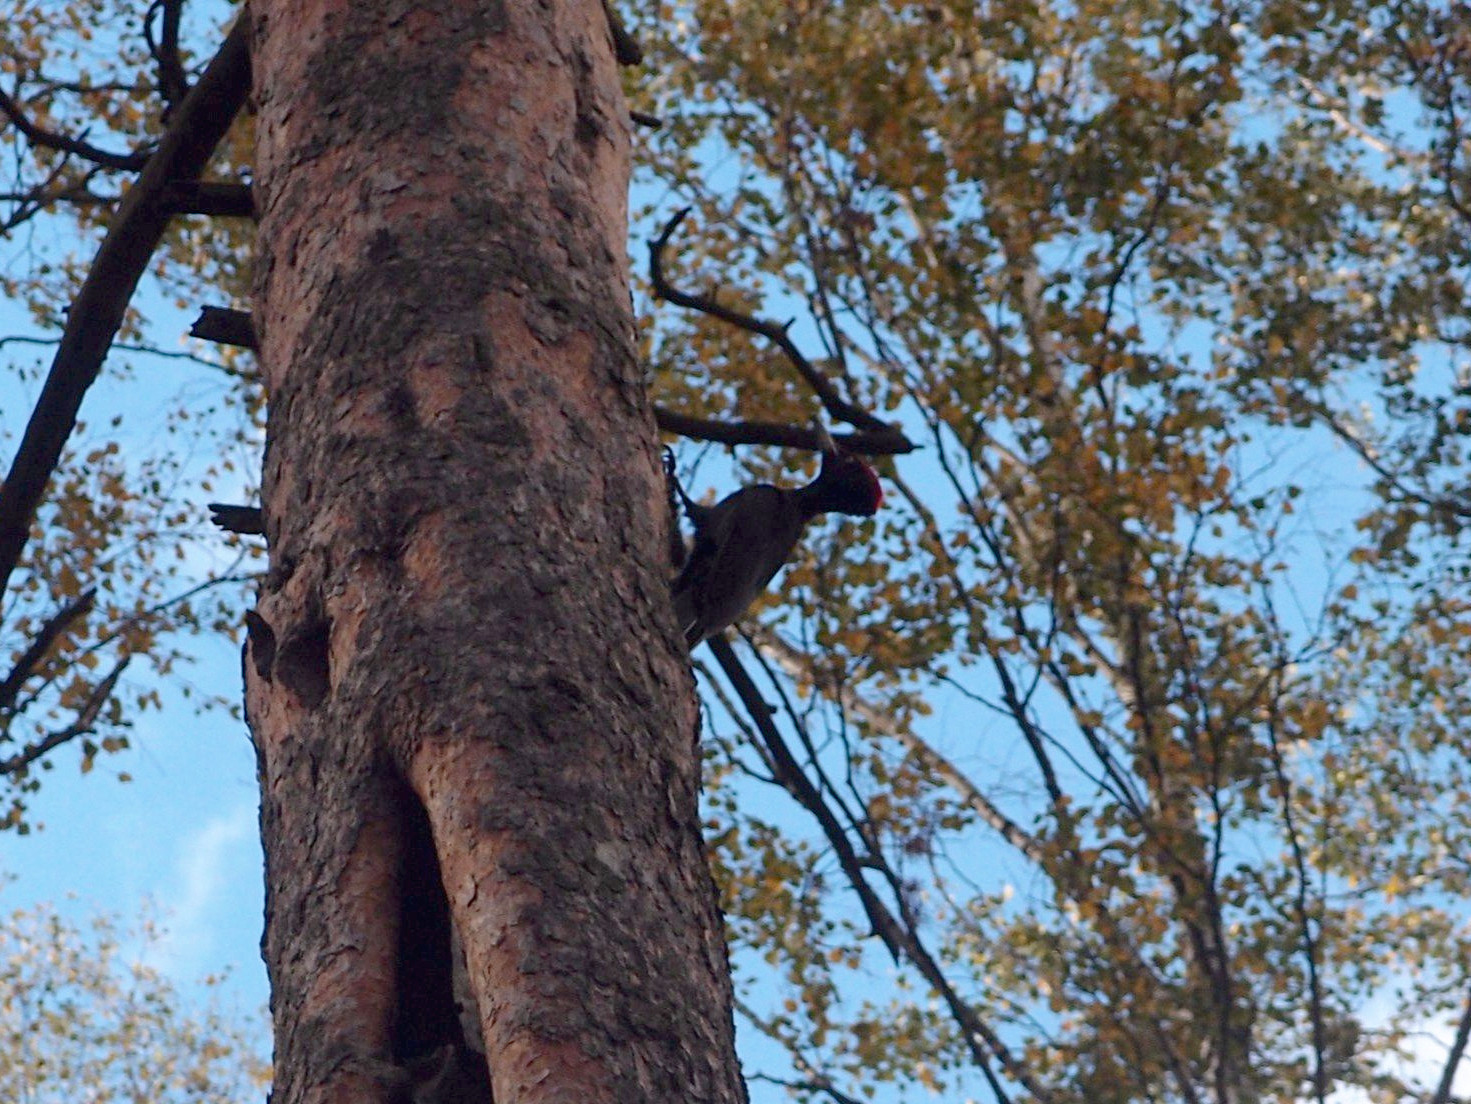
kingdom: Animalia
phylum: Chordata
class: Aves
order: Piciformes
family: Picidae
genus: Dryocopus
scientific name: Dryocopus martius
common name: Black woodpecker
